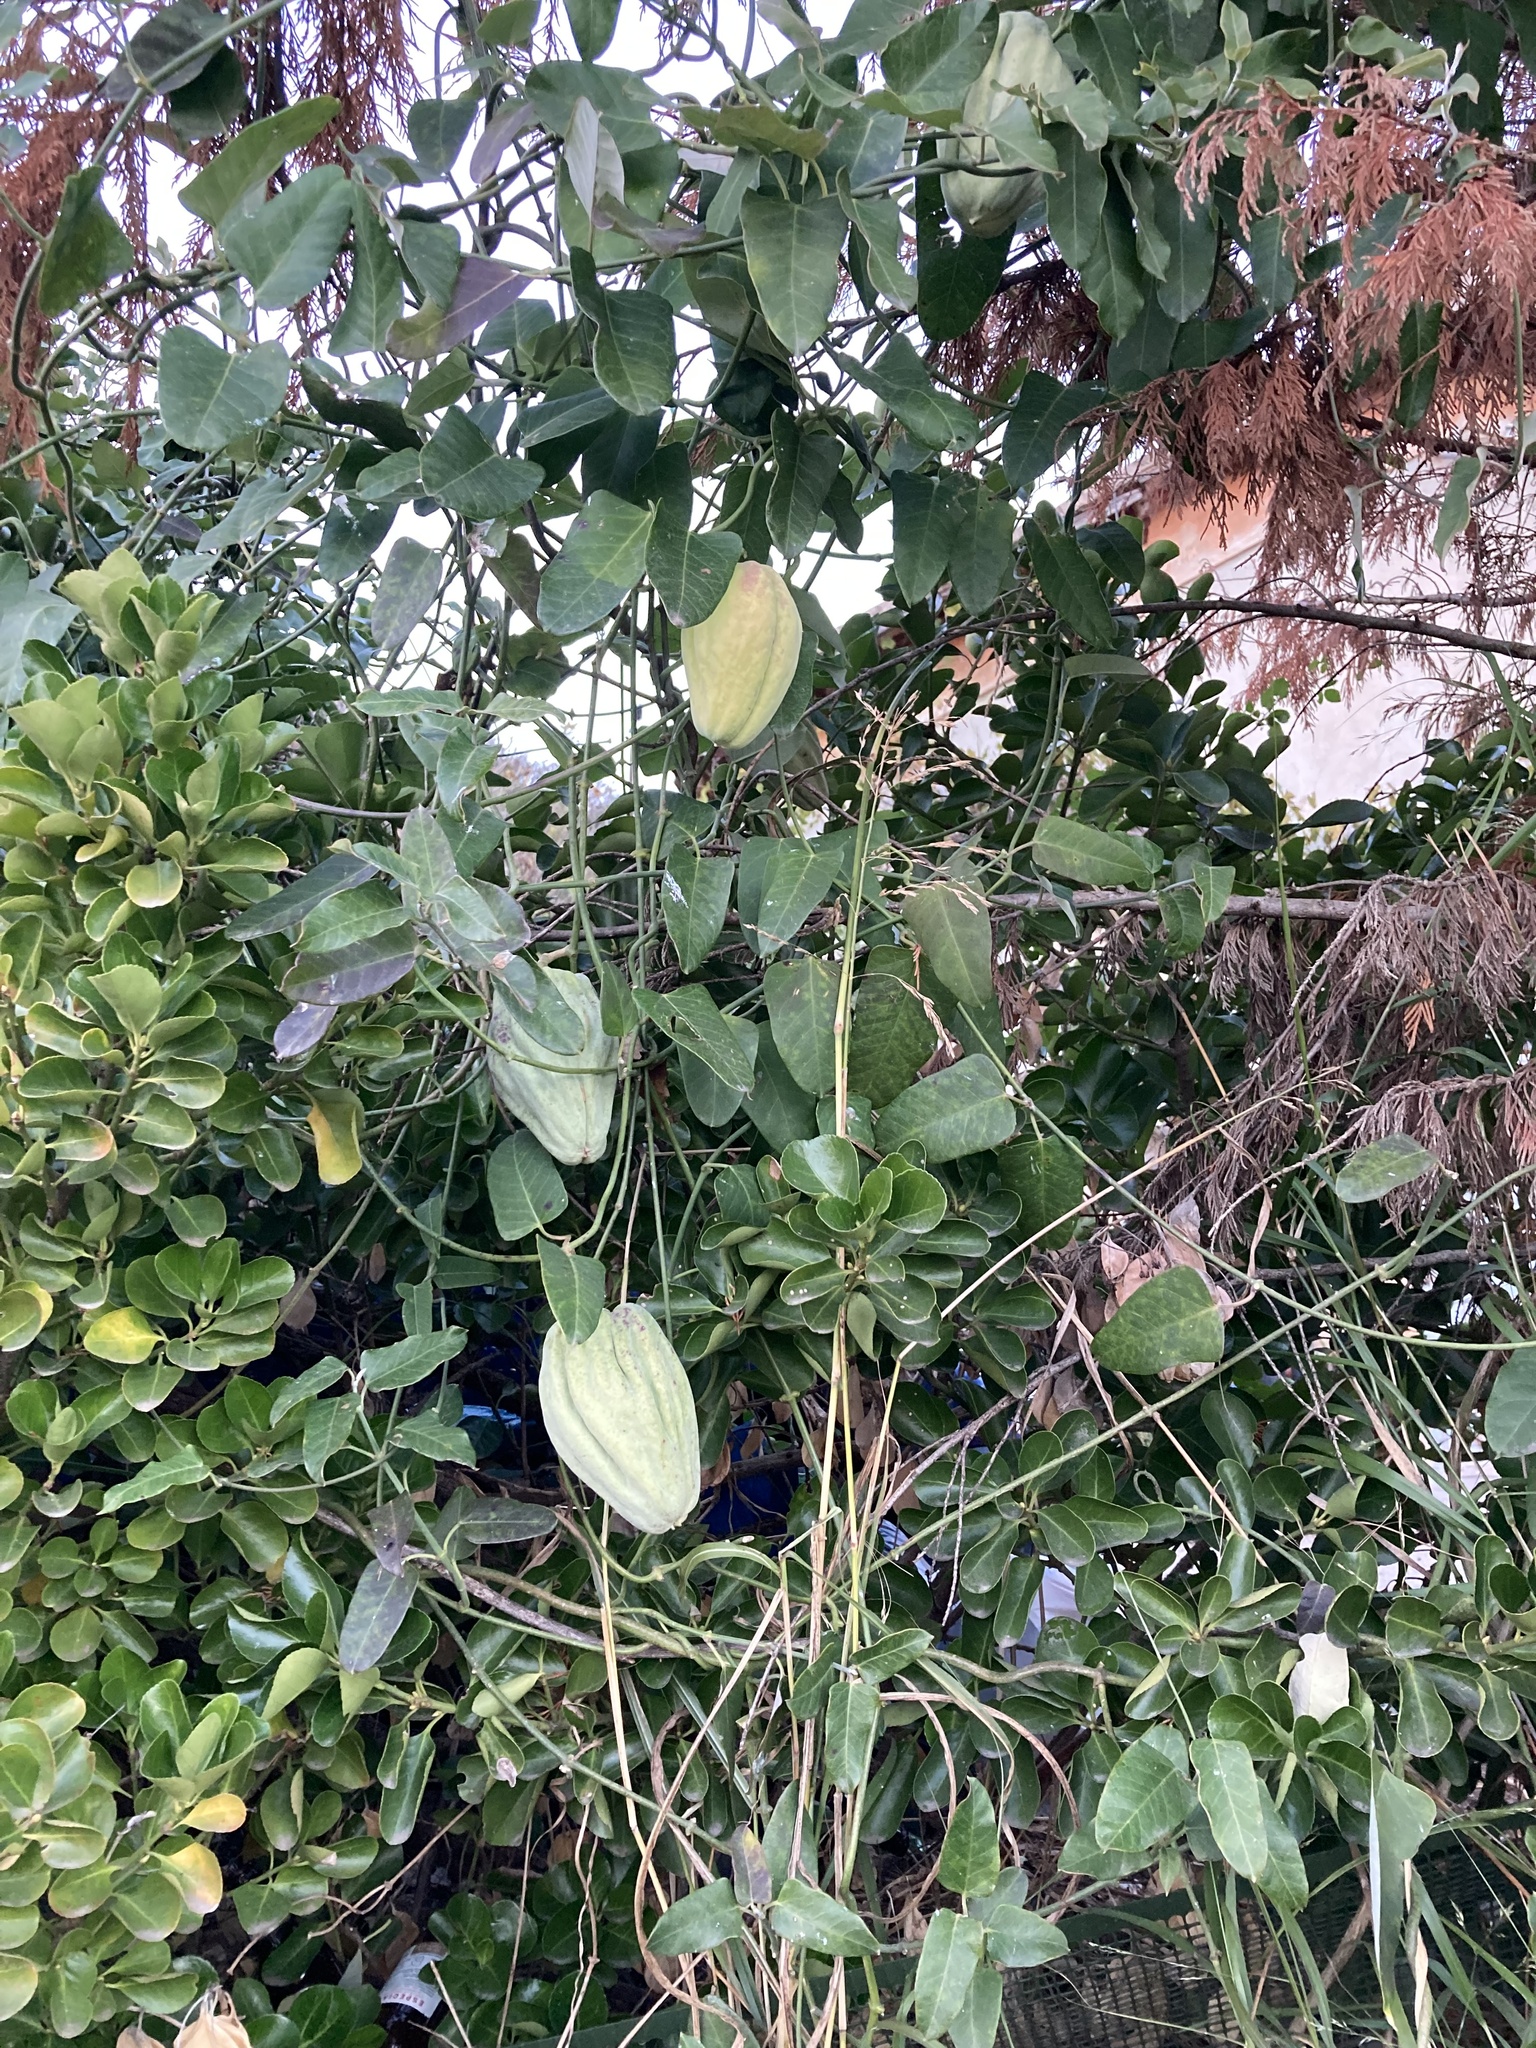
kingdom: Plantae
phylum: Tracheophyta
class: Magnoliopsida
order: Gentianales
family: Apocynaceae
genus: Araujia
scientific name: Araujia sericifera
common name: White bladderflower
